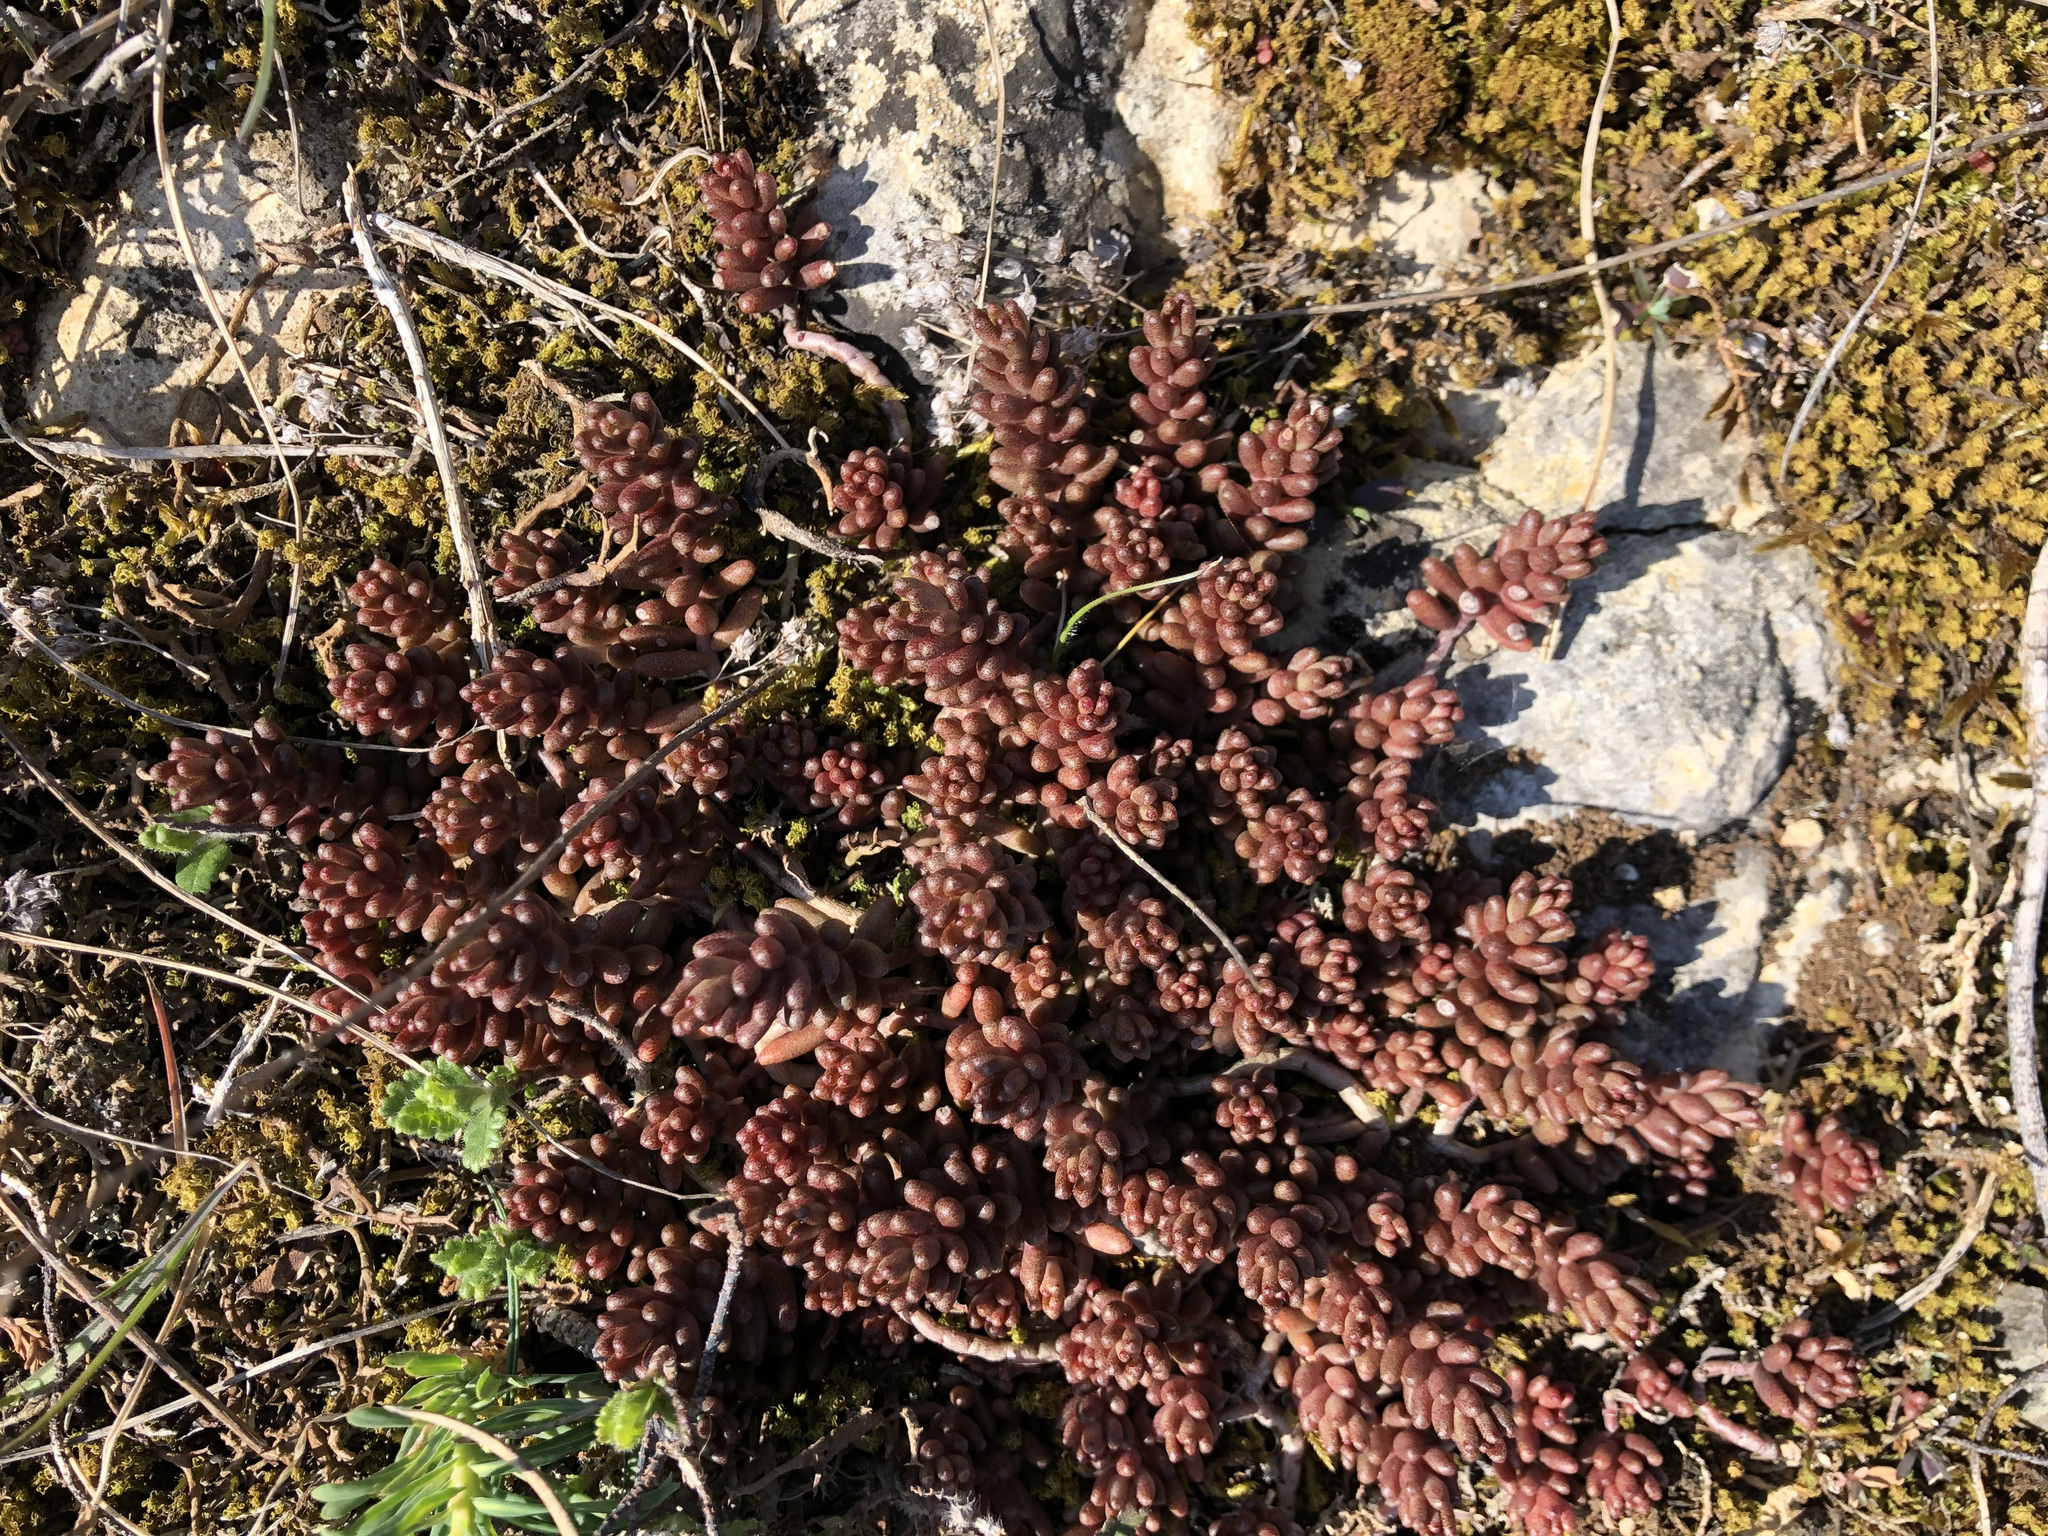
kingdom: Plantae
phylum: Tracheophyta
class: Magnoliopsida
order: Saxifragales
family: Crassulaceae
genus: Sedum
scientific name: Sedum album
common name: White stonecrop
